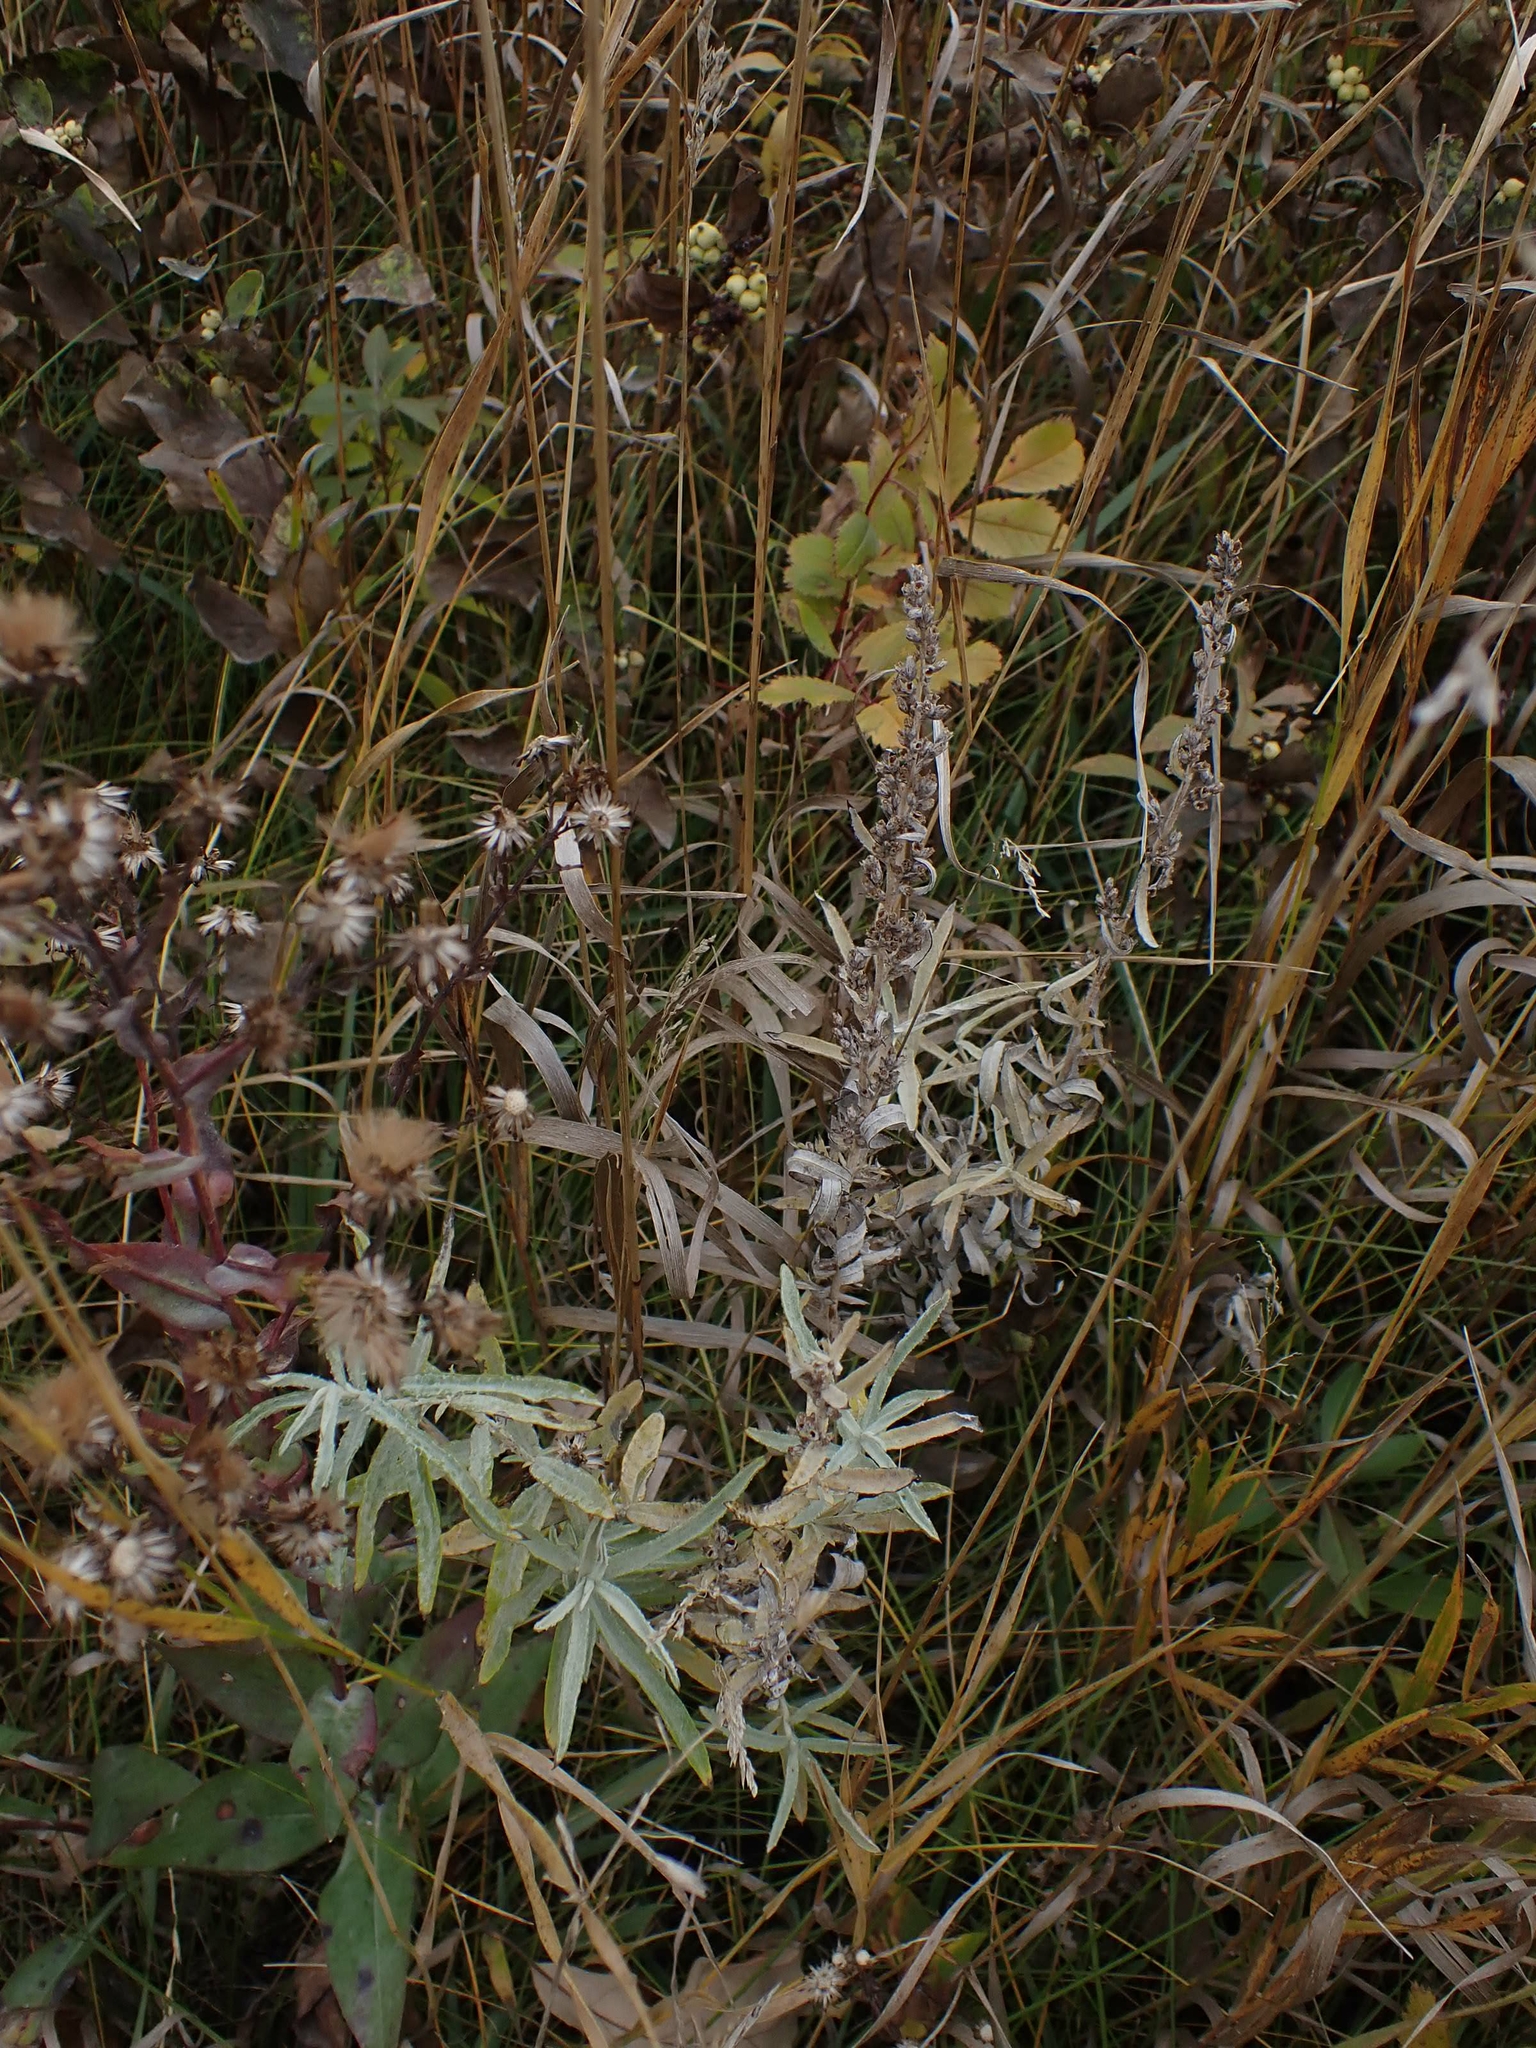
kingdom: Plantae
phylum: Tracheophyta
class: Magnoliopsida
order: Asterales
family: Asteraceae
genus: Artemisia
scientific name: Artemisia ludoviciana
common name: Western mugwort
